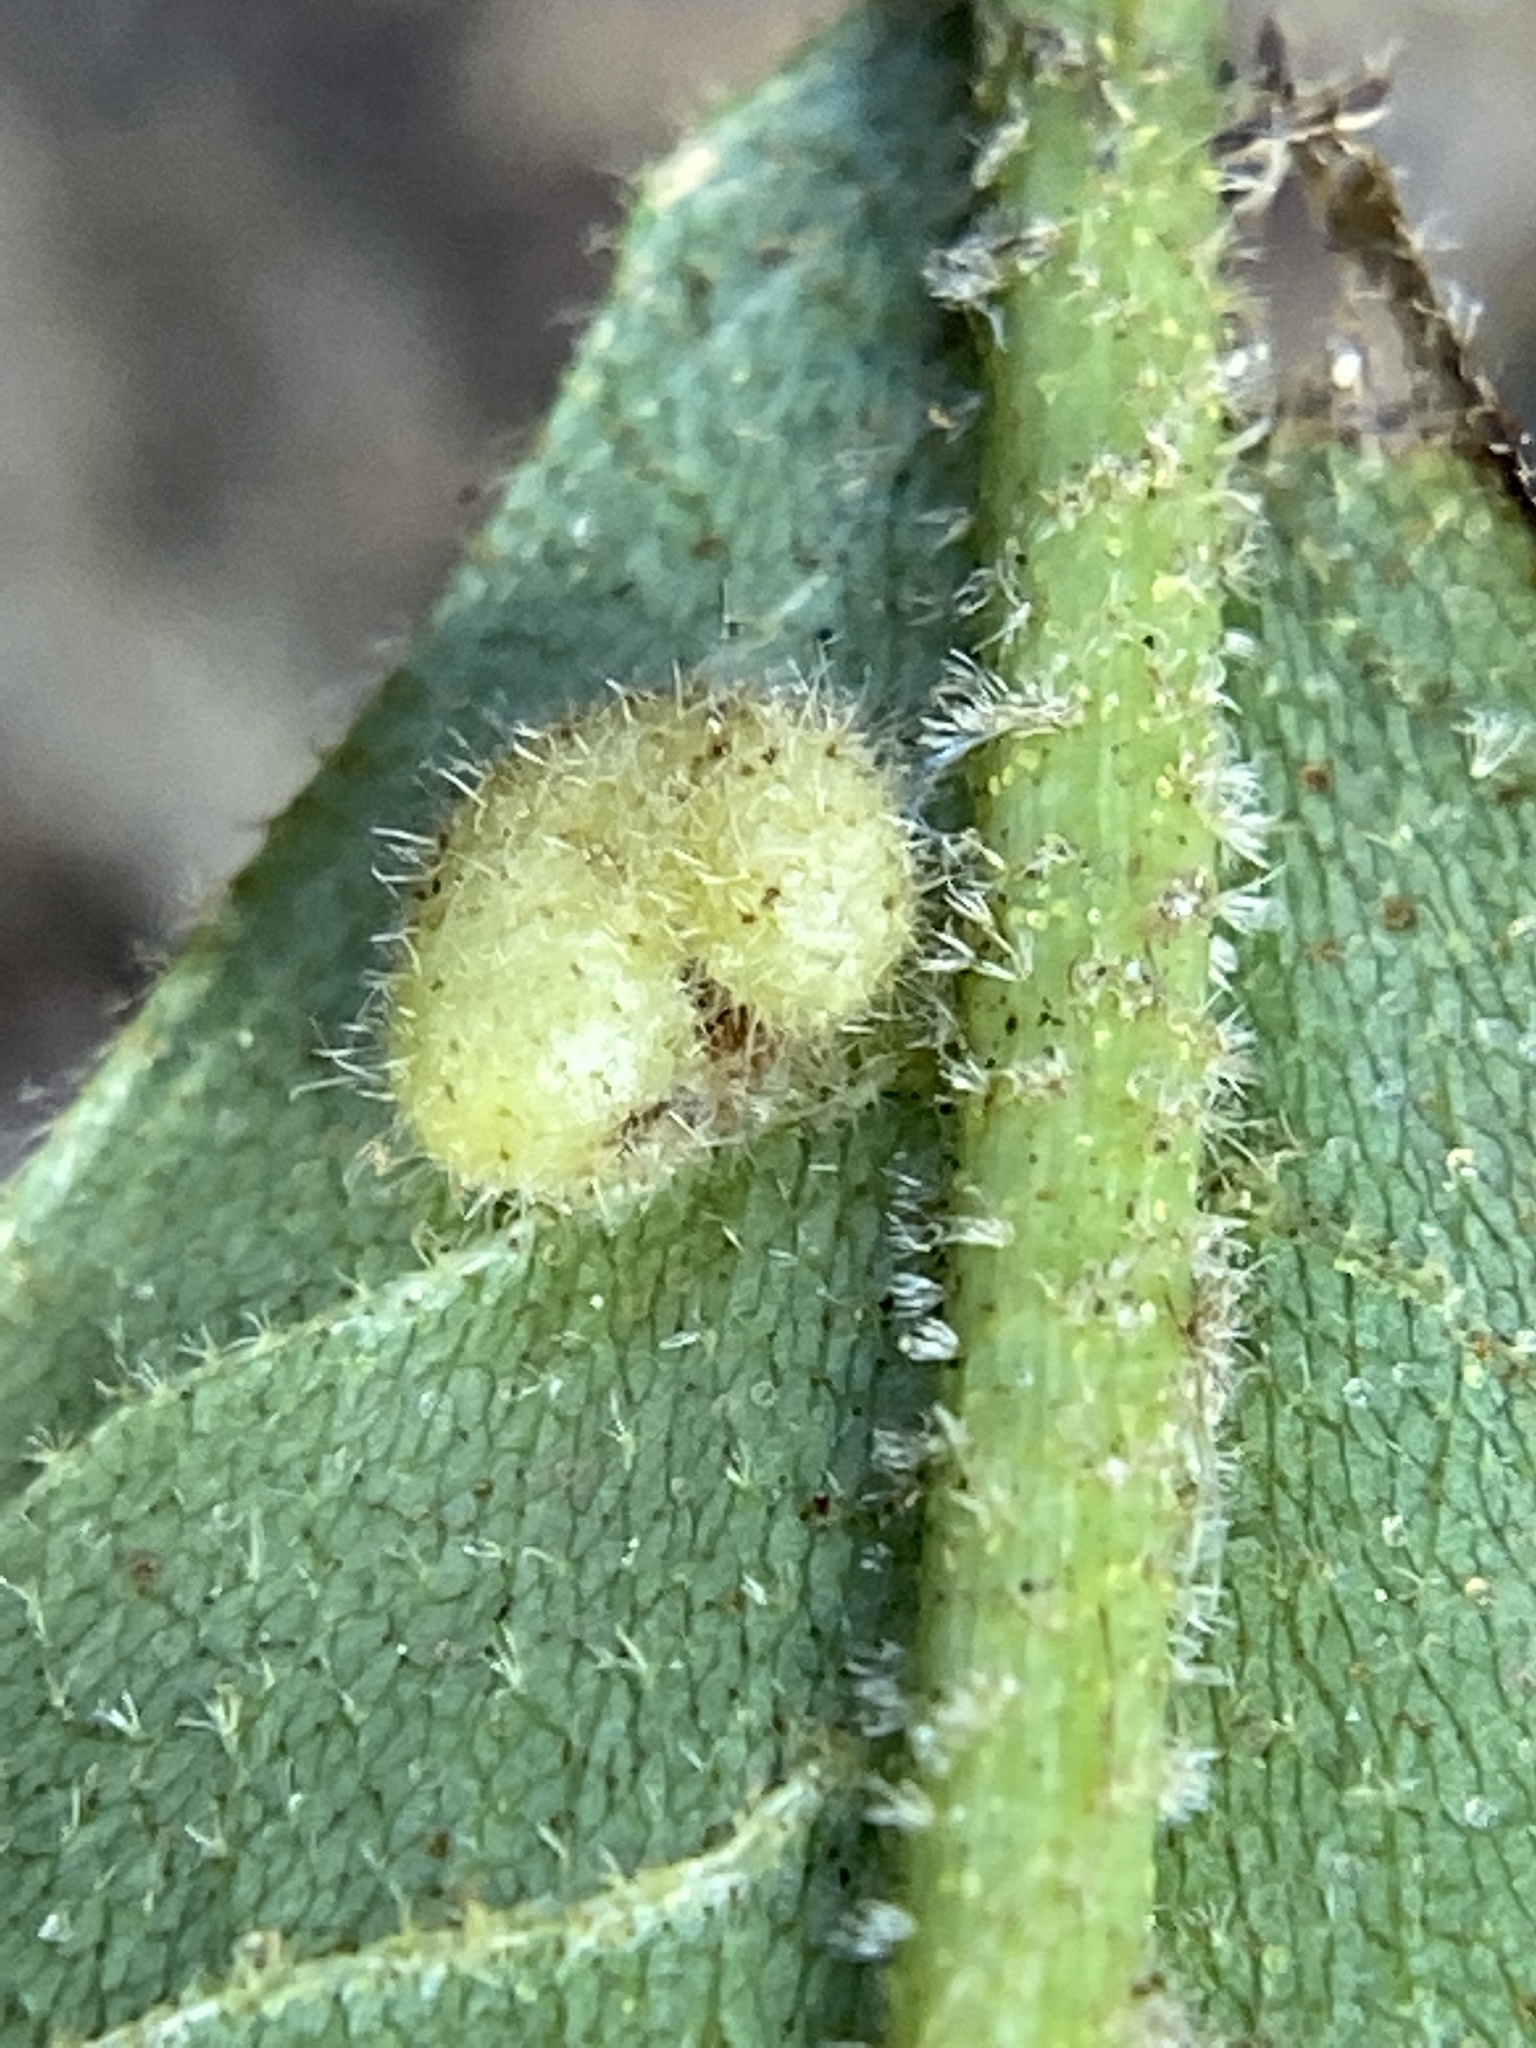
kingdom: Animalia
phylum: Arthropoda
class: Insecta
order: Diptera
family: Cecidomyiidae
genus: Caryomyia
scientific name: Caryomyia thompsoni
